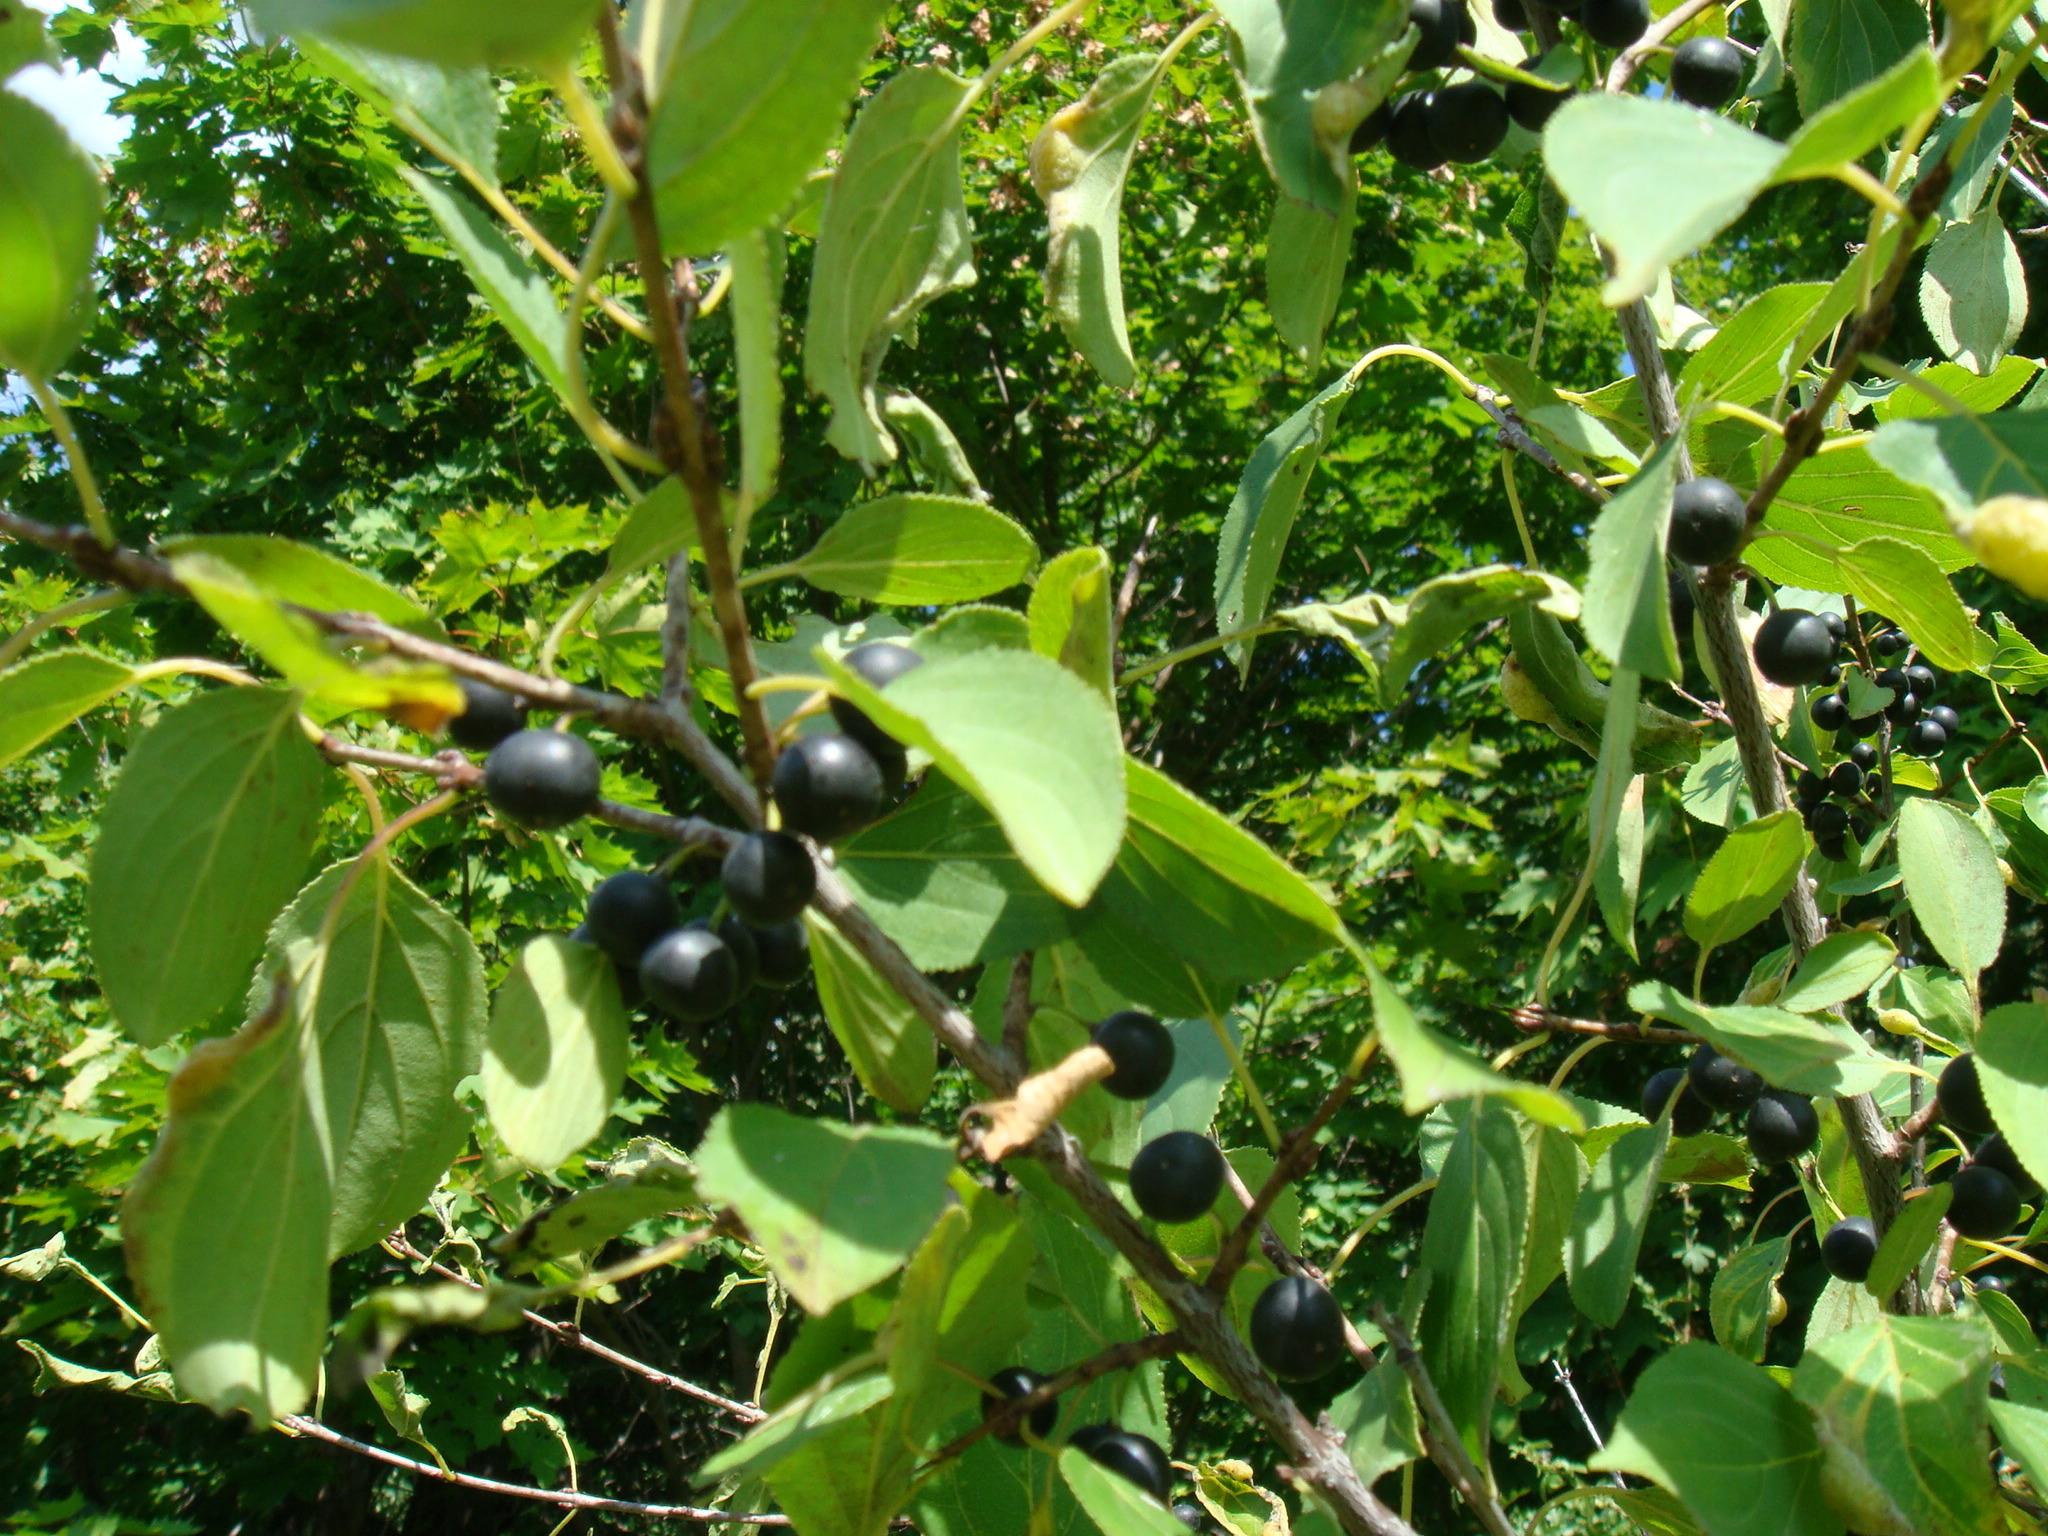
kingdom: Plantae
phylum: Tracheophyta
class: Magnoliopsida
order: Rosales
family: Rhamnaceae
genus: Rhamnus
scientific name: Rhamnus cathartica
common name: Common buckthorn
